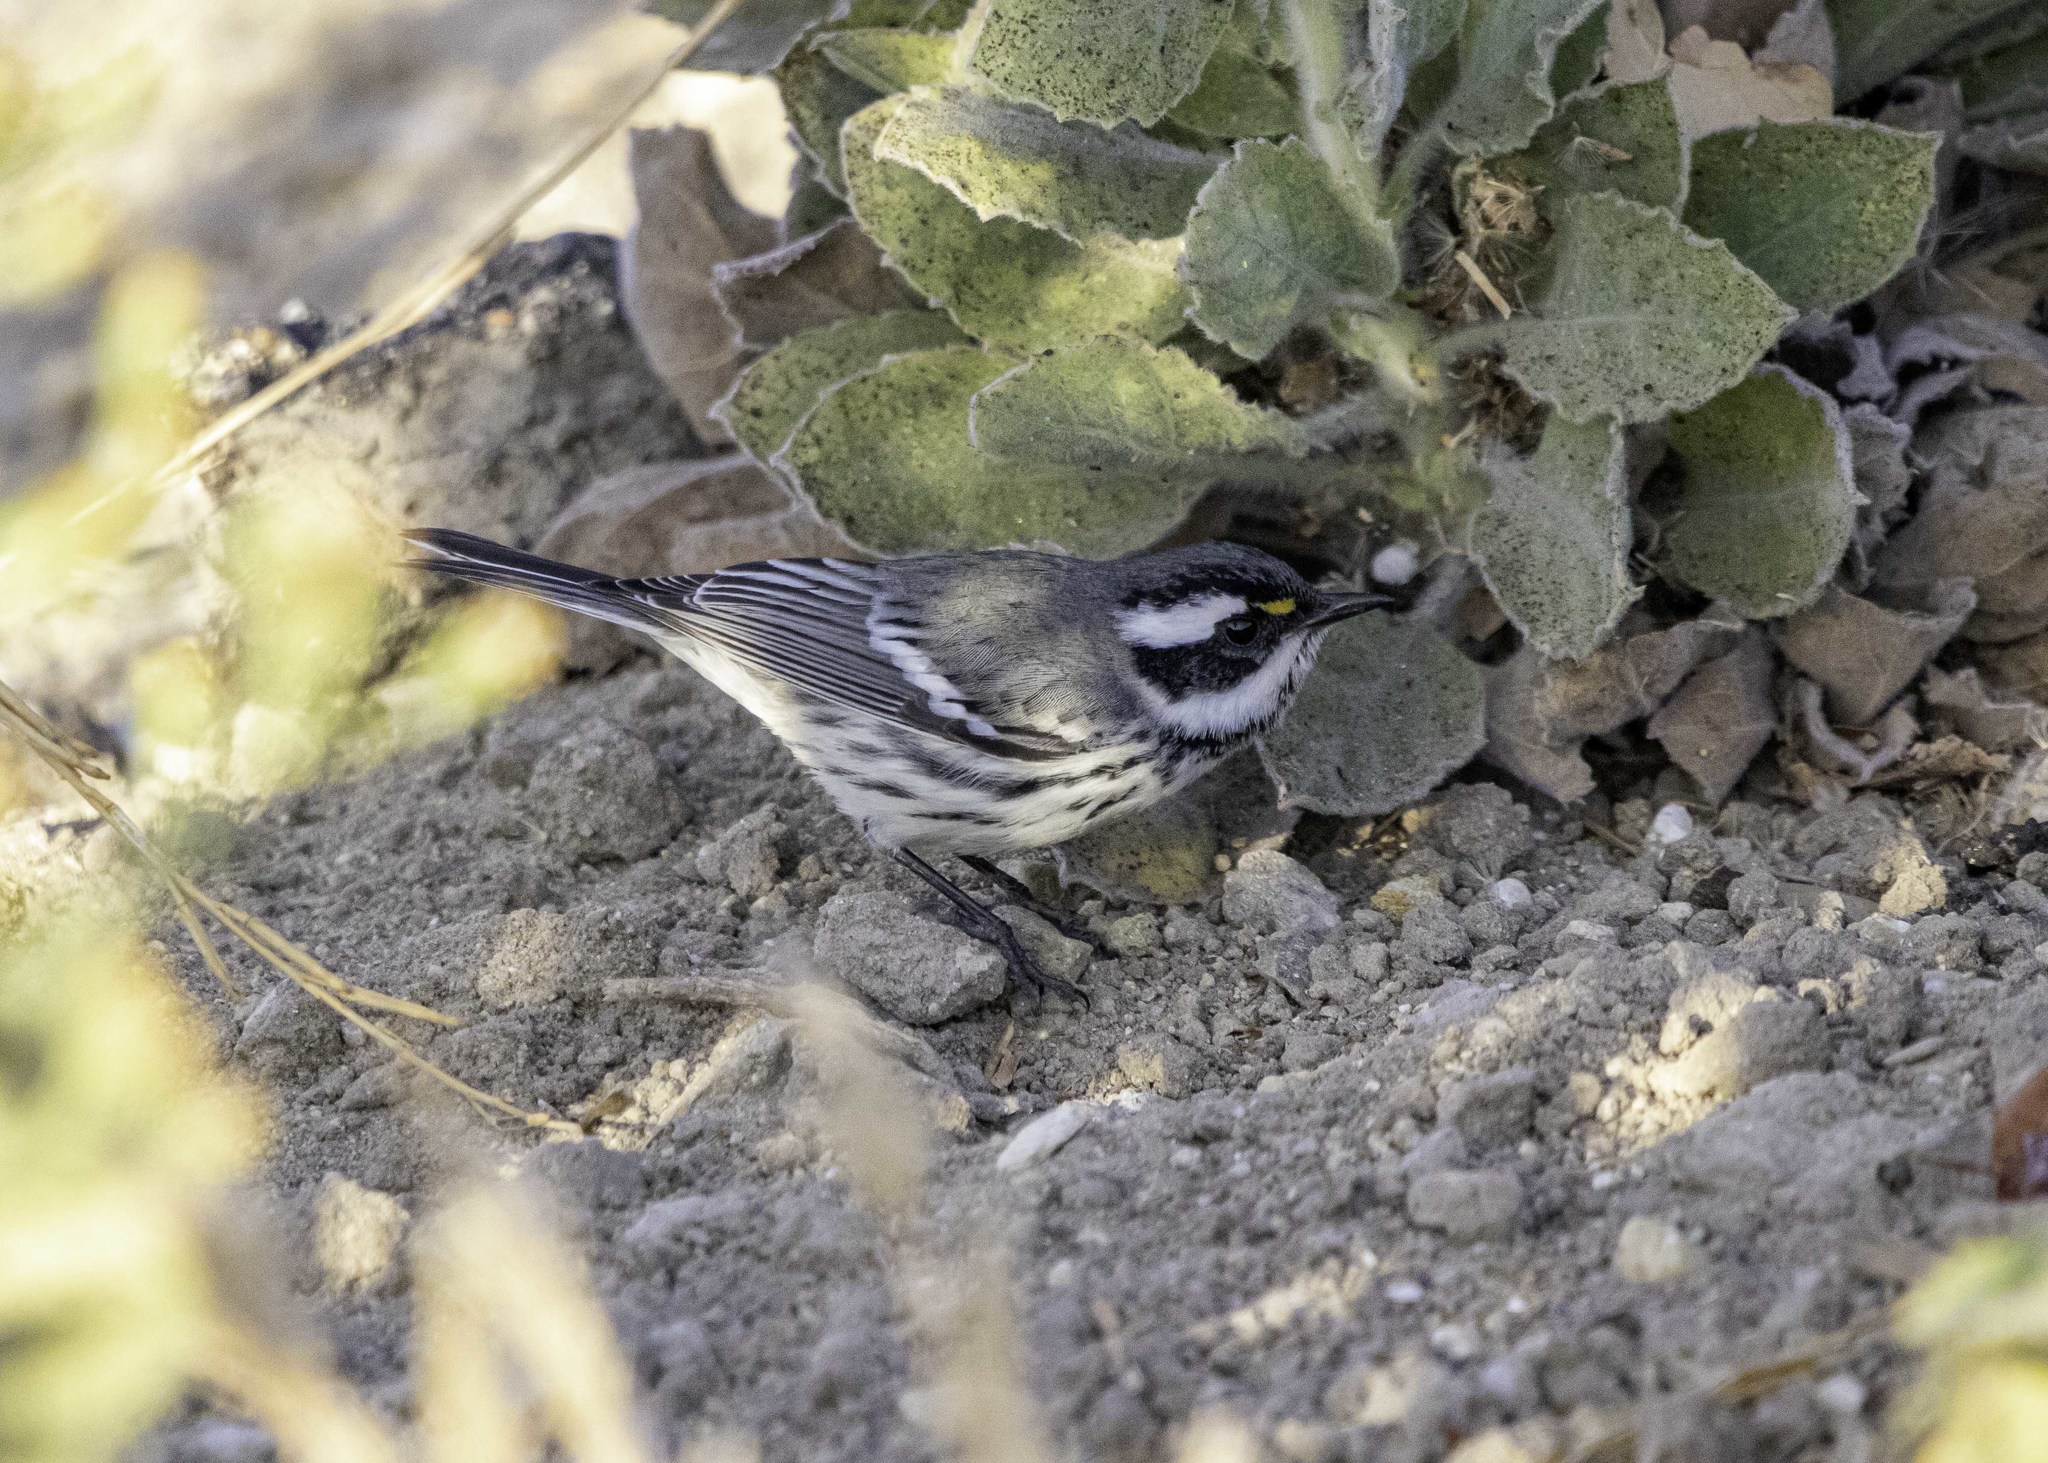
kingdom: Animalia
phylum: Chordata
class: Aves
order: Passeriformes
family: Parulidae
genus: Setophaga
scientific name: Setophaga nigrescens
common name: Black-throated gray warbler
